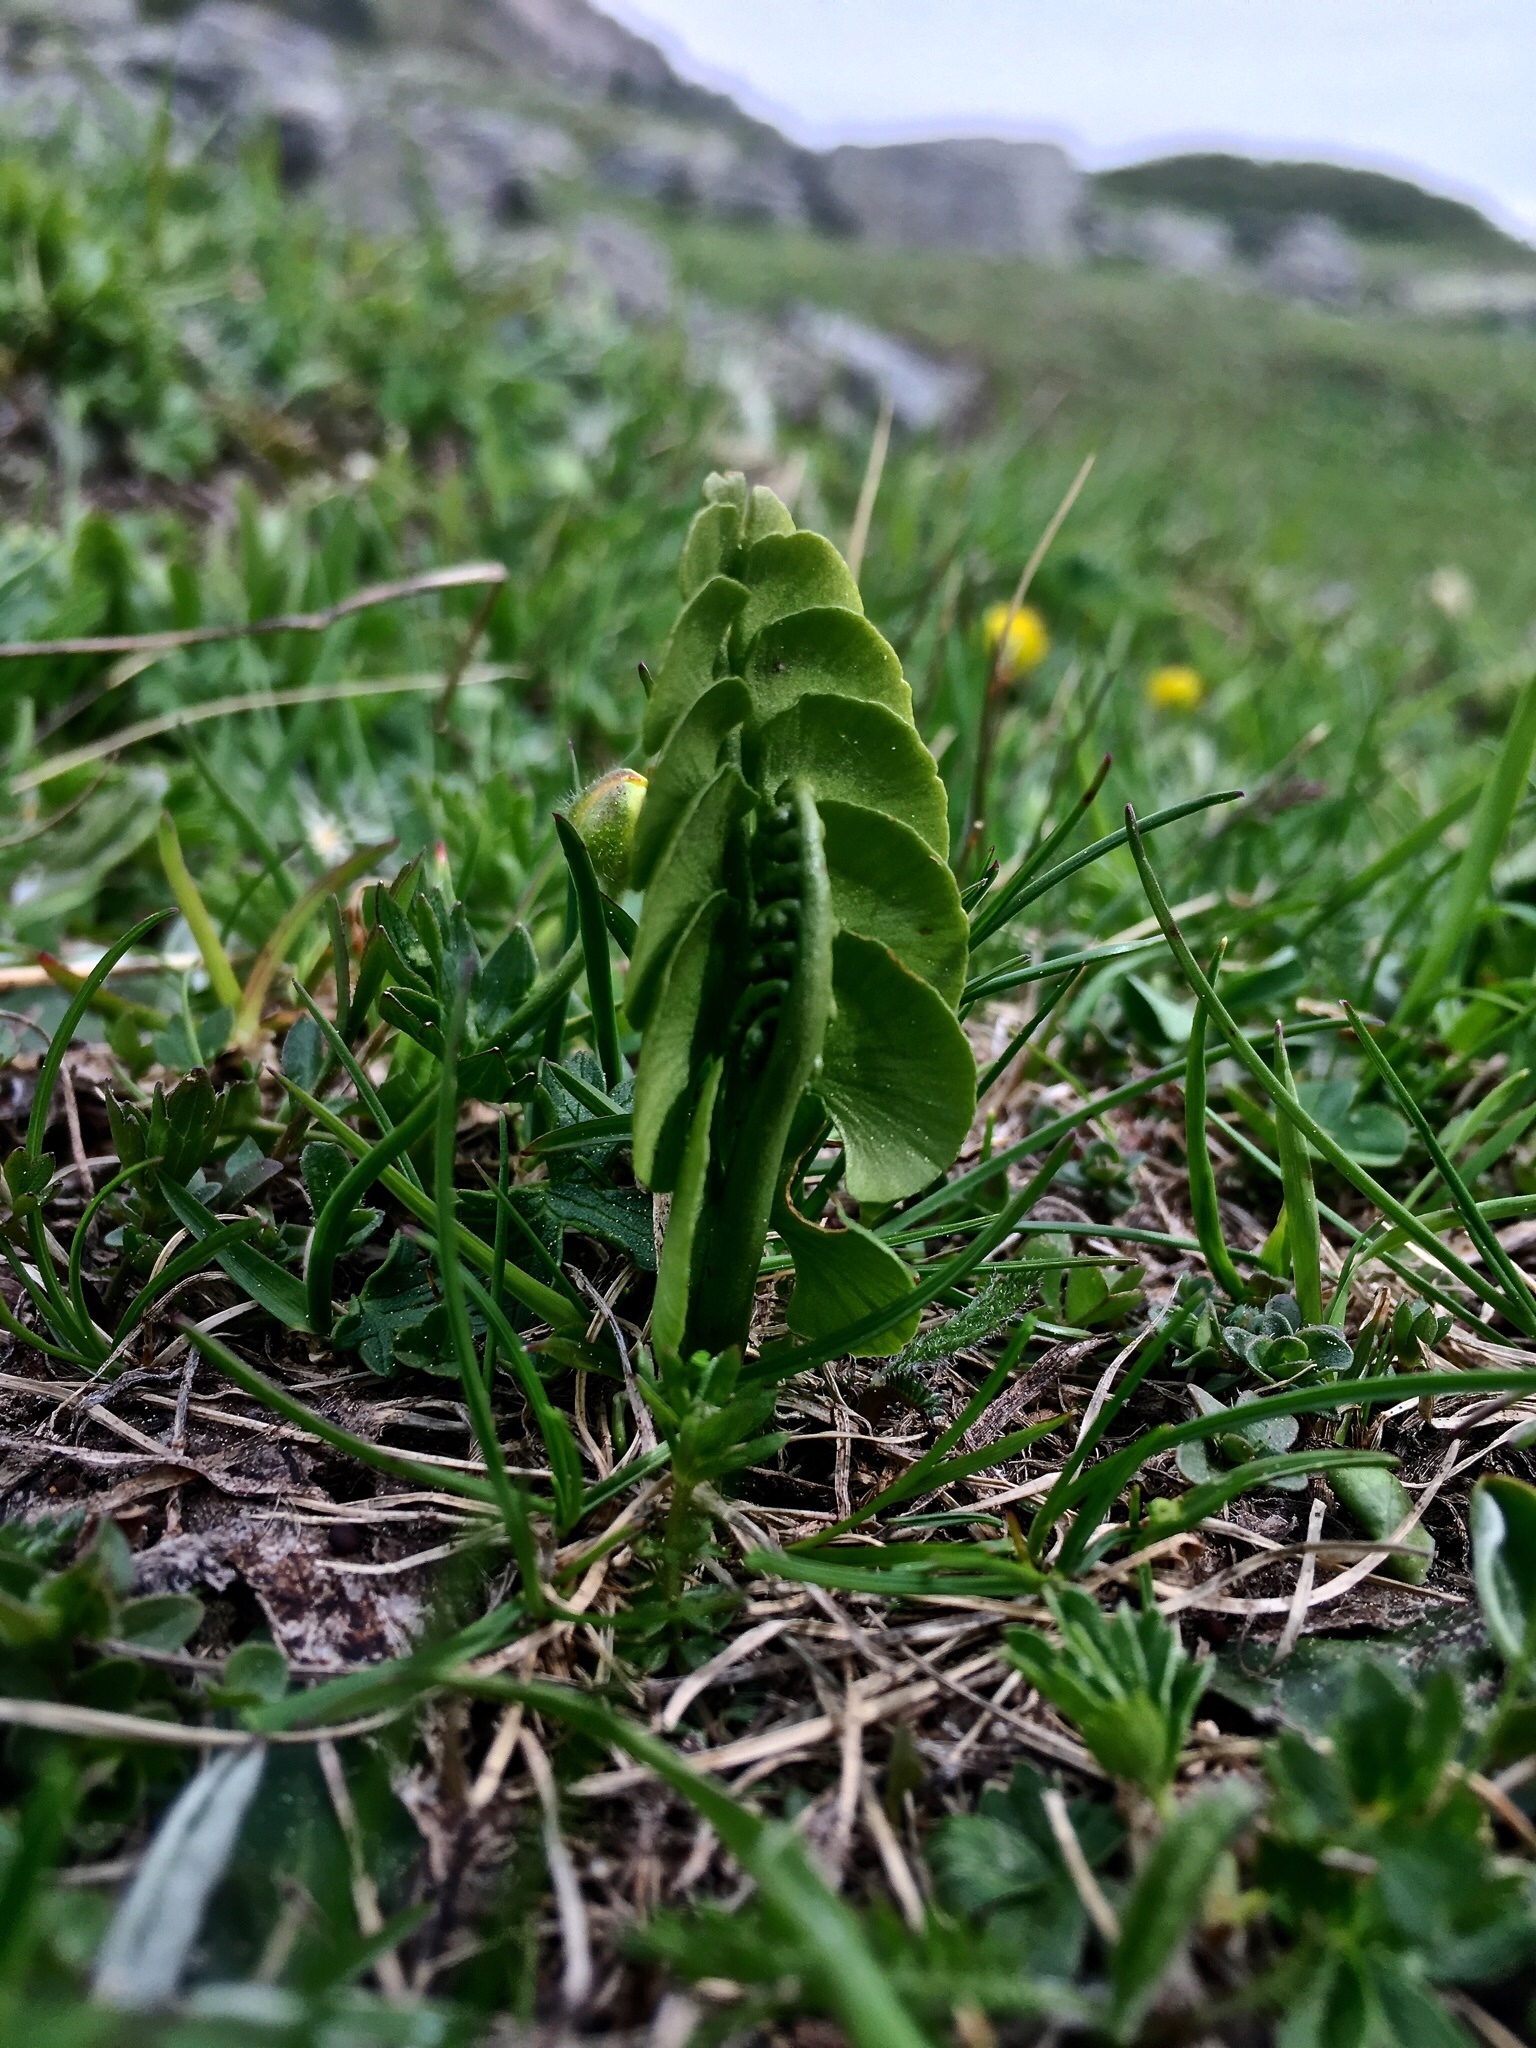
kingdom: Plantae
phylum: Tracheophyta
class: Polypodiopsida
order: Ophioglossales
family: Ophioglossaceae
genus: Botrychium
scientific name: Botrychium lunaria
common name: Moonwort
